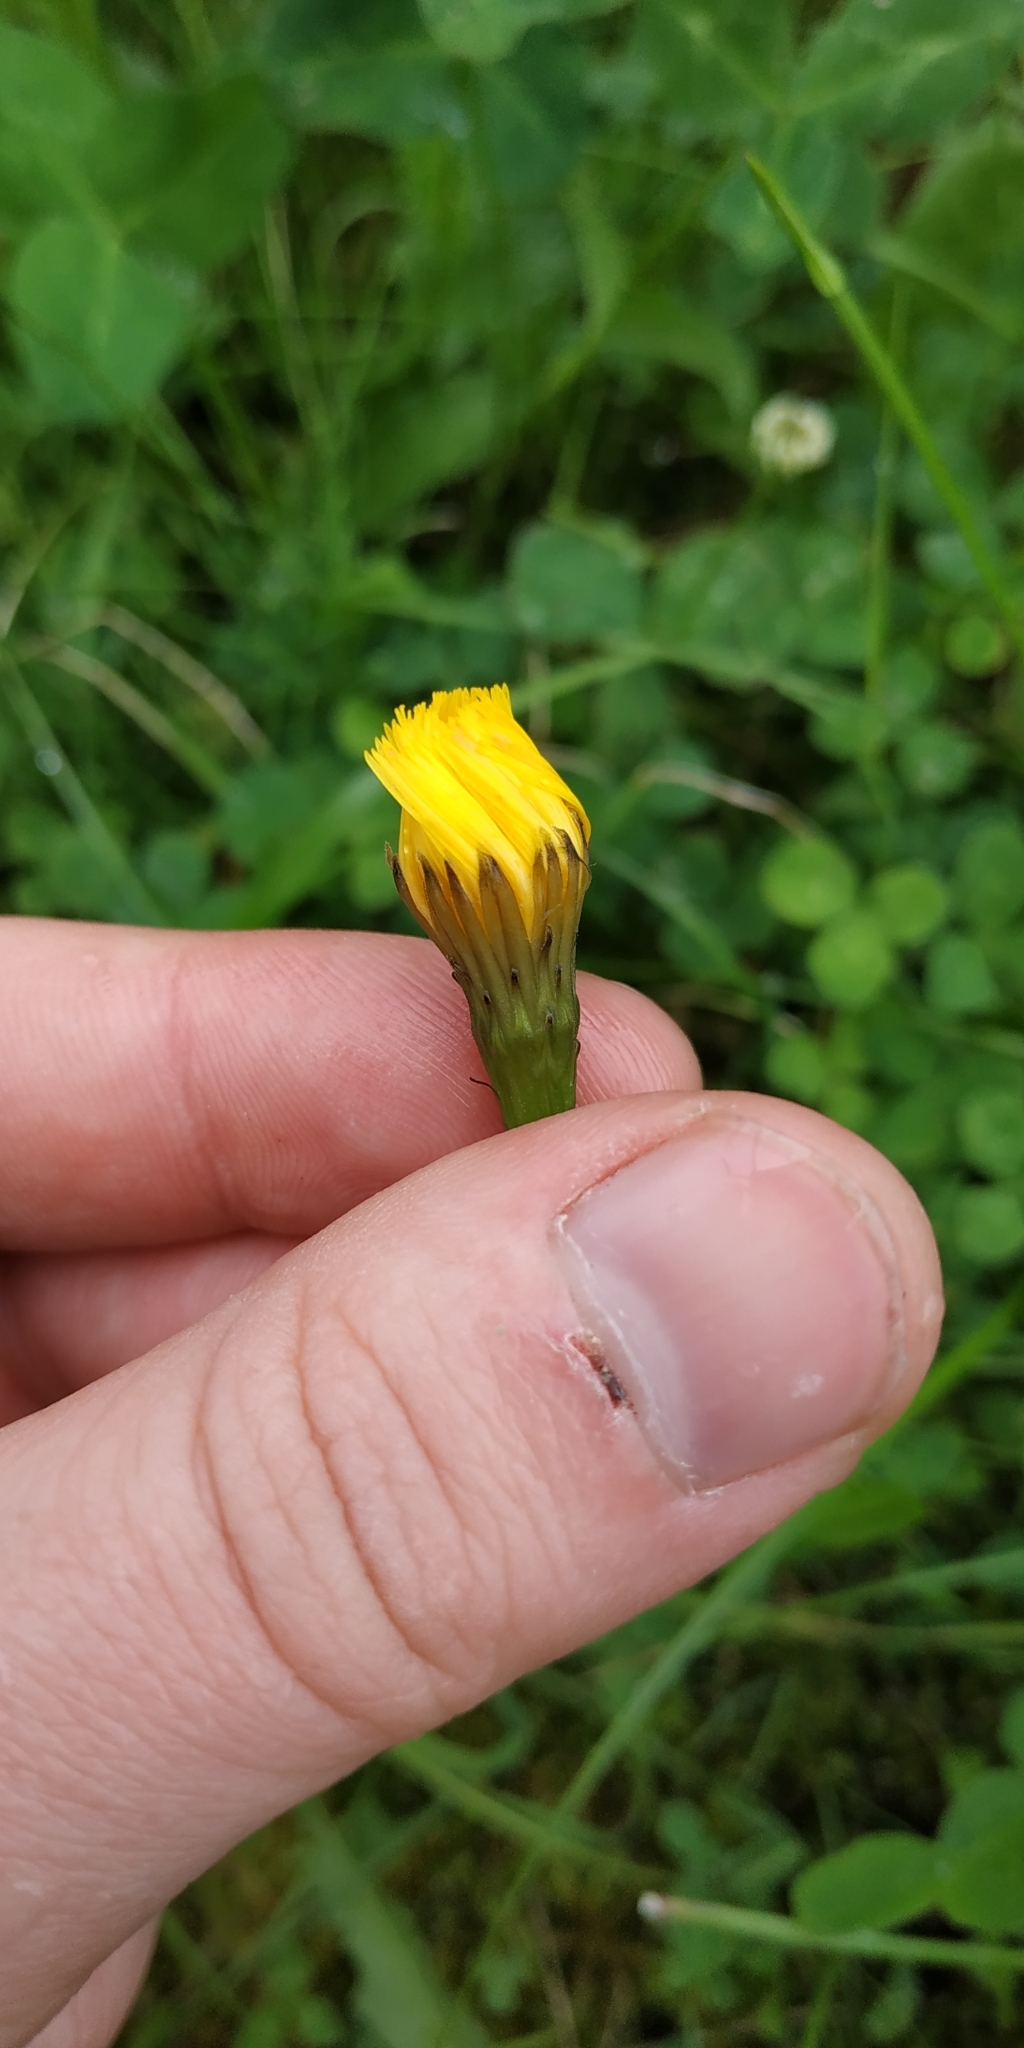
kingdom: Plantae
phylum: Tracheophyta
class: Magnoliopsida
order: Asterales
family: Asteraceae
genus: Scorzoneroides
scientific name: Scorzoneroides autumnalis
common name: Autumn hawkbit
